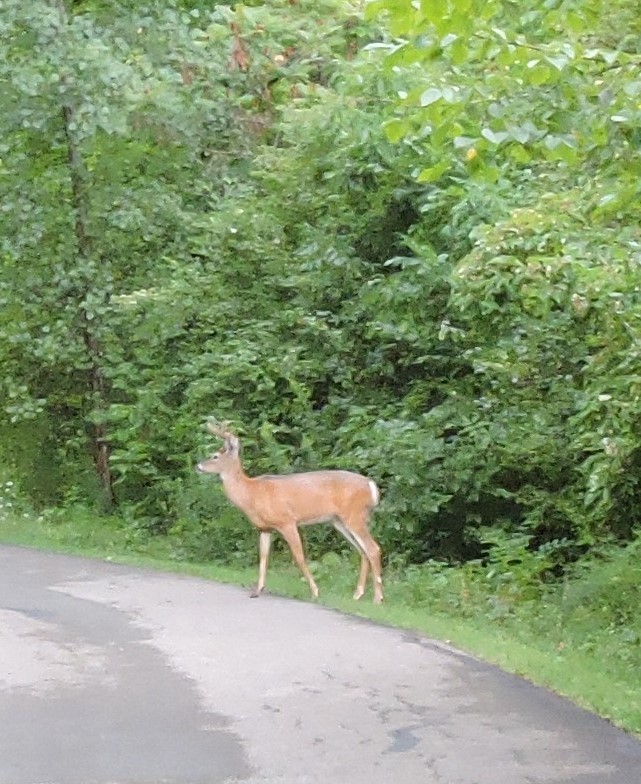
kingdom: Animalia
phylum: Chordata
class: Mammalia
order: Artiodactyla
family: Cervidae
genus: Odocoileus
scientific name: Odocoileus virginianus
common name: White-tailed deer
